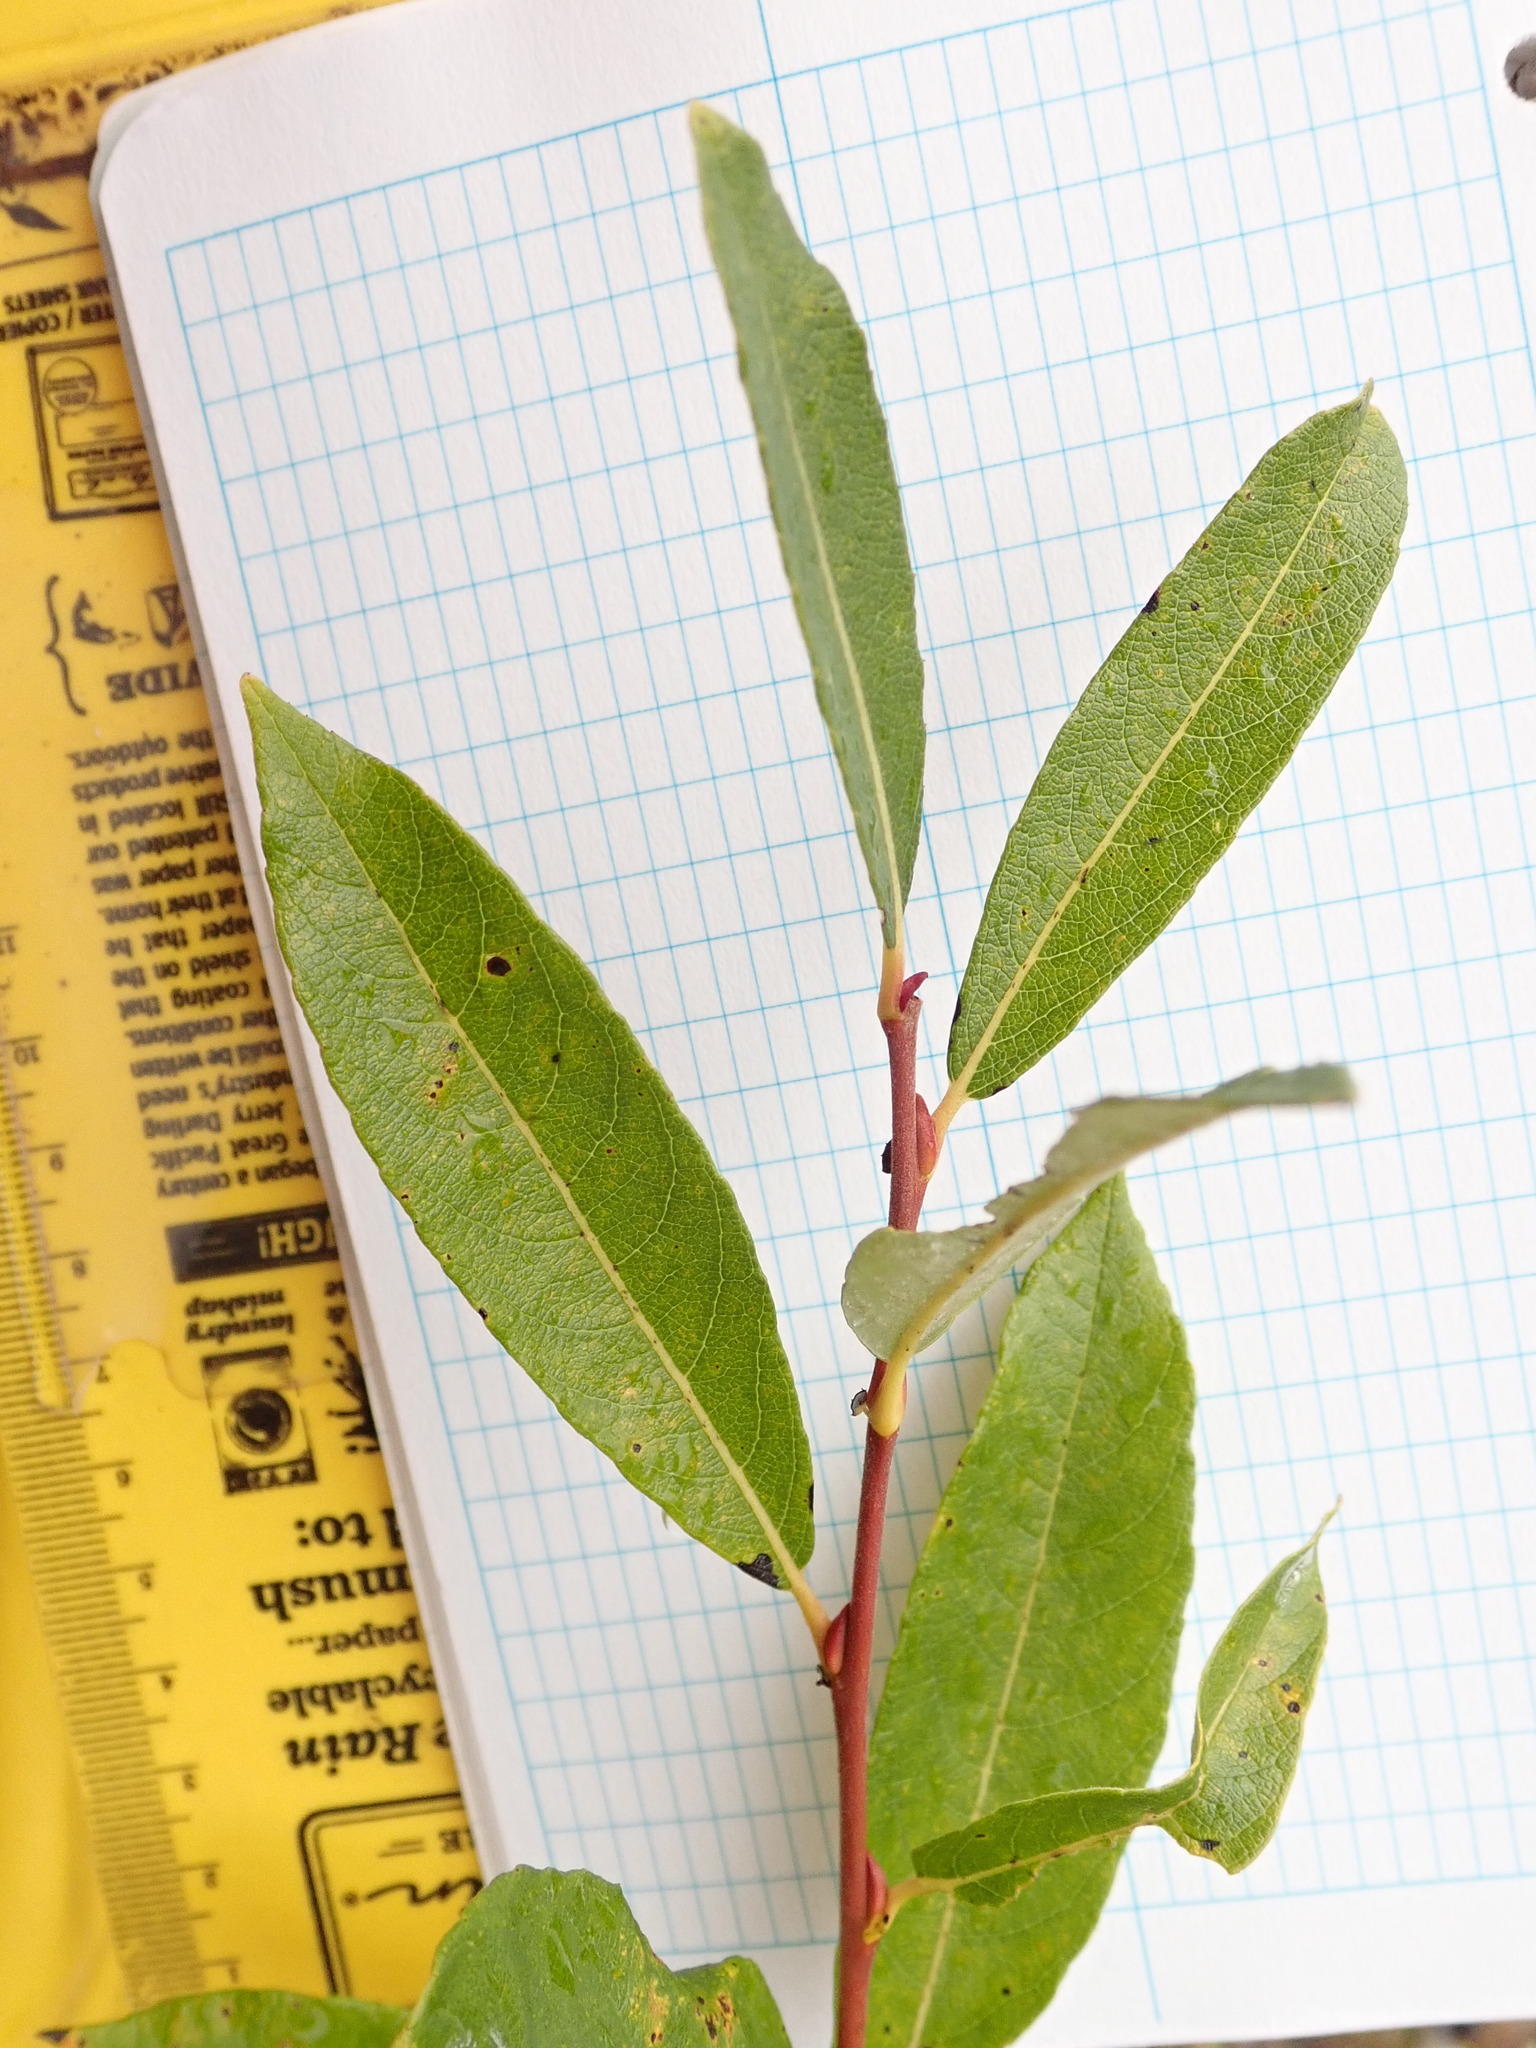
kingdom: Plantae
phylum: Tracheophyta
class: Magnoliopsida
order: Malpighiales
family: Salicaceae
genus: Salix
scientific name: Salix humilis
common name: Prairie willow
